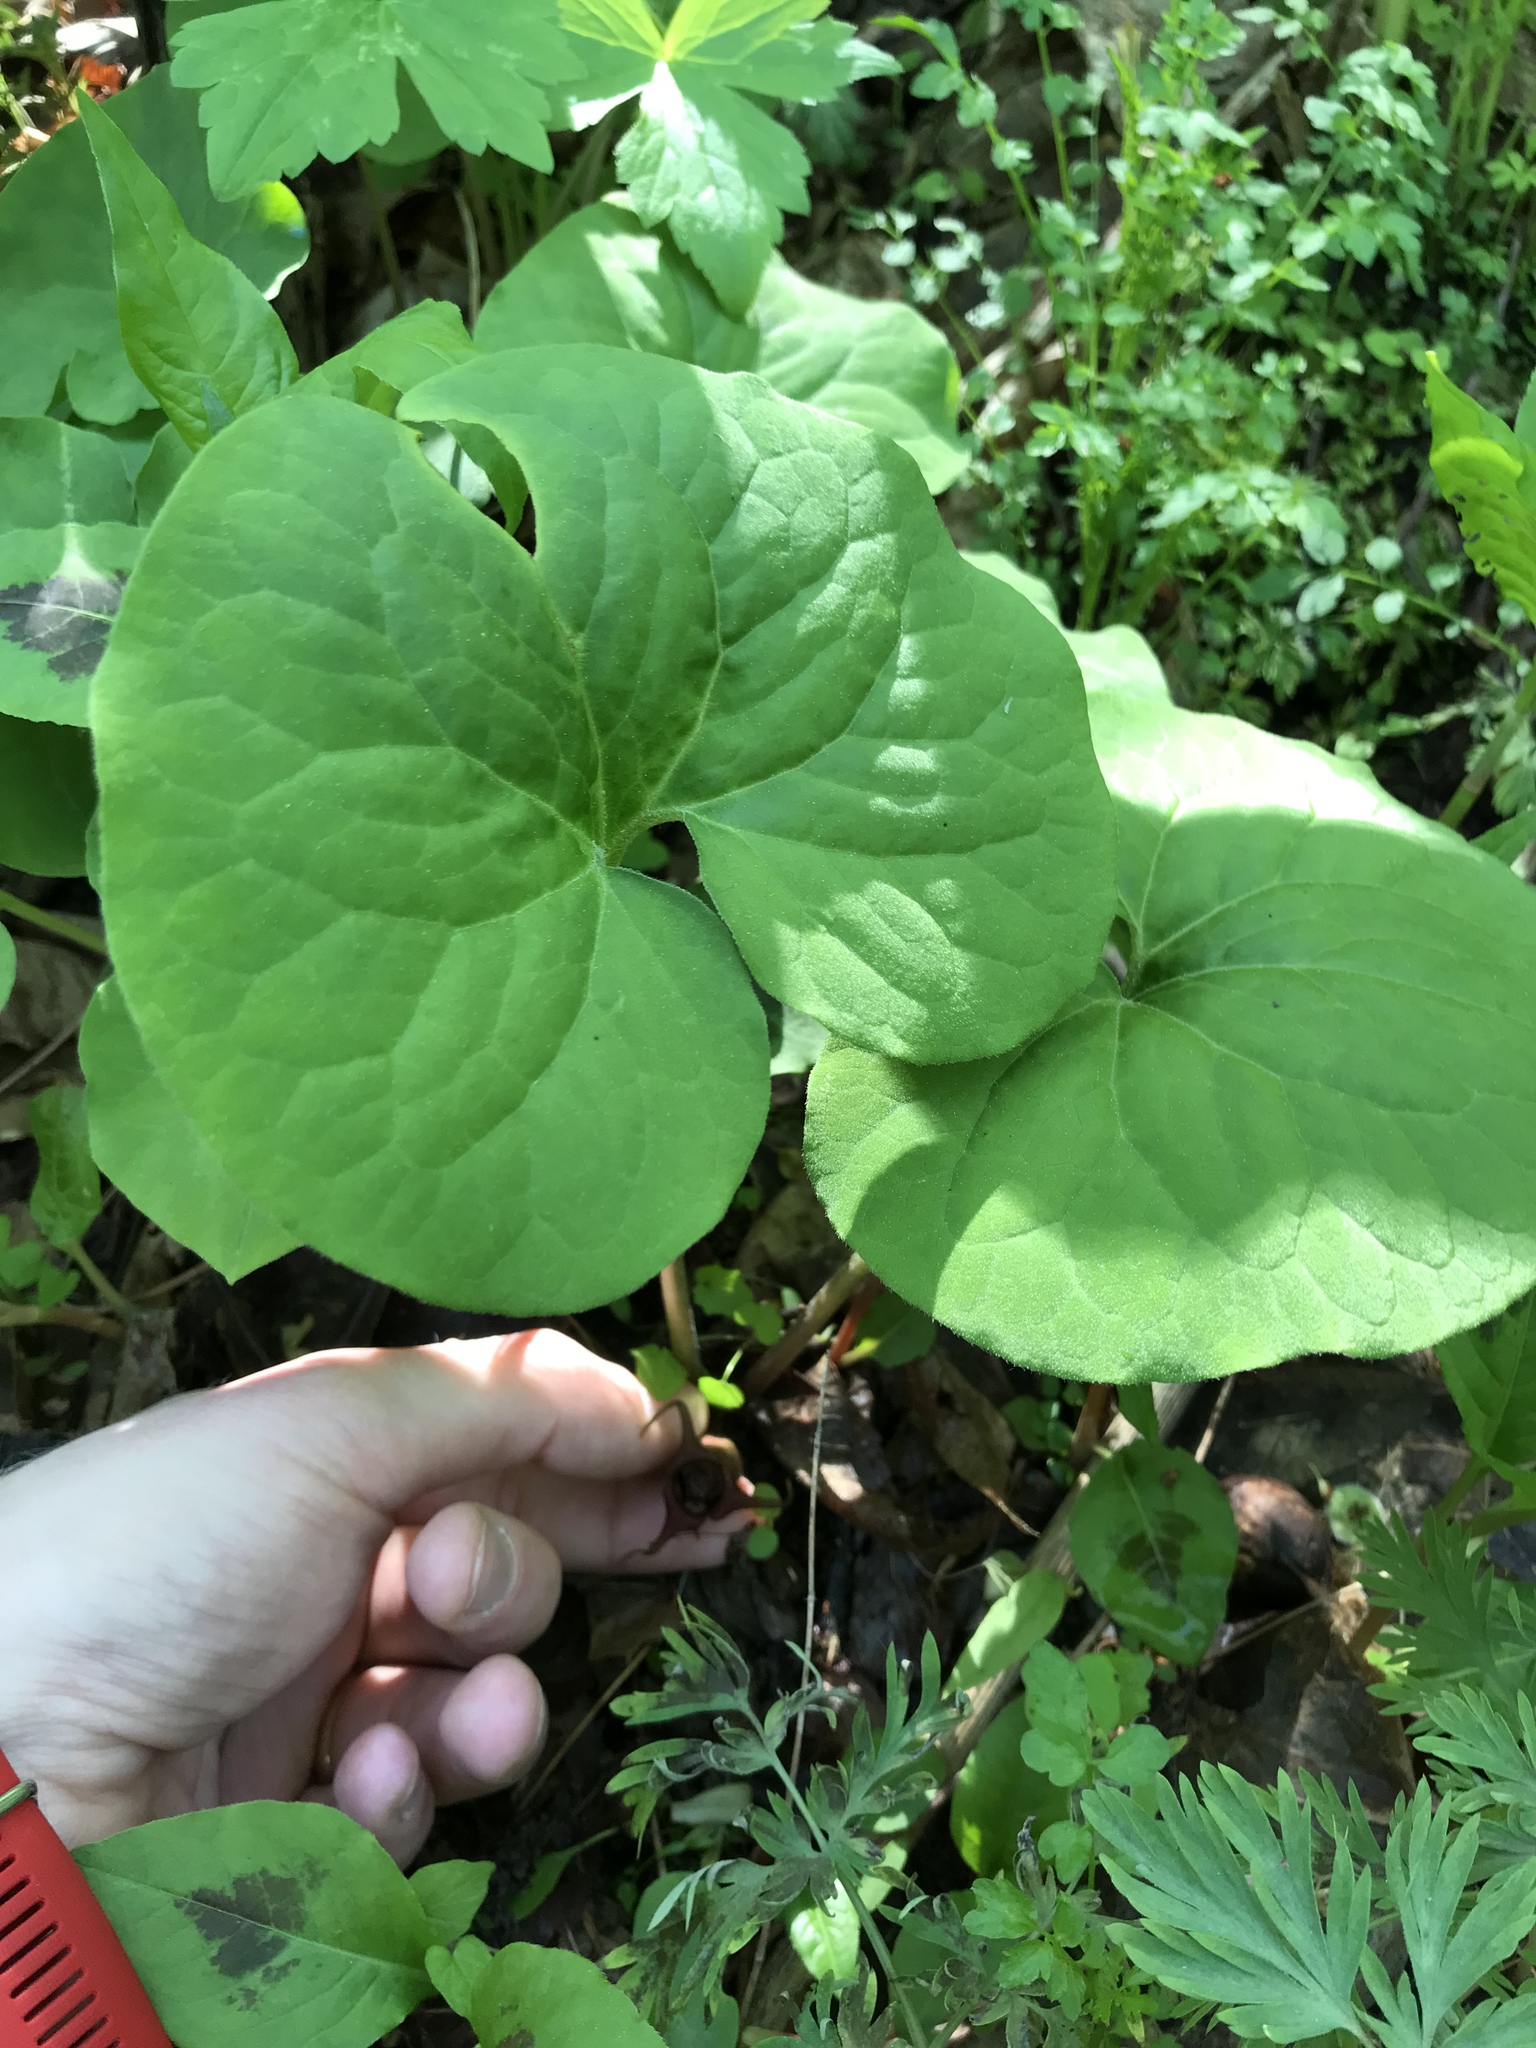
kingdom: Plantae
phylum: Tracheophyta
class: Magnoliopsida
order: Piperales
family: Aristolochiaceae
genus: Asarum
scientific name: Asarum canadense
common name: Wild ginger
